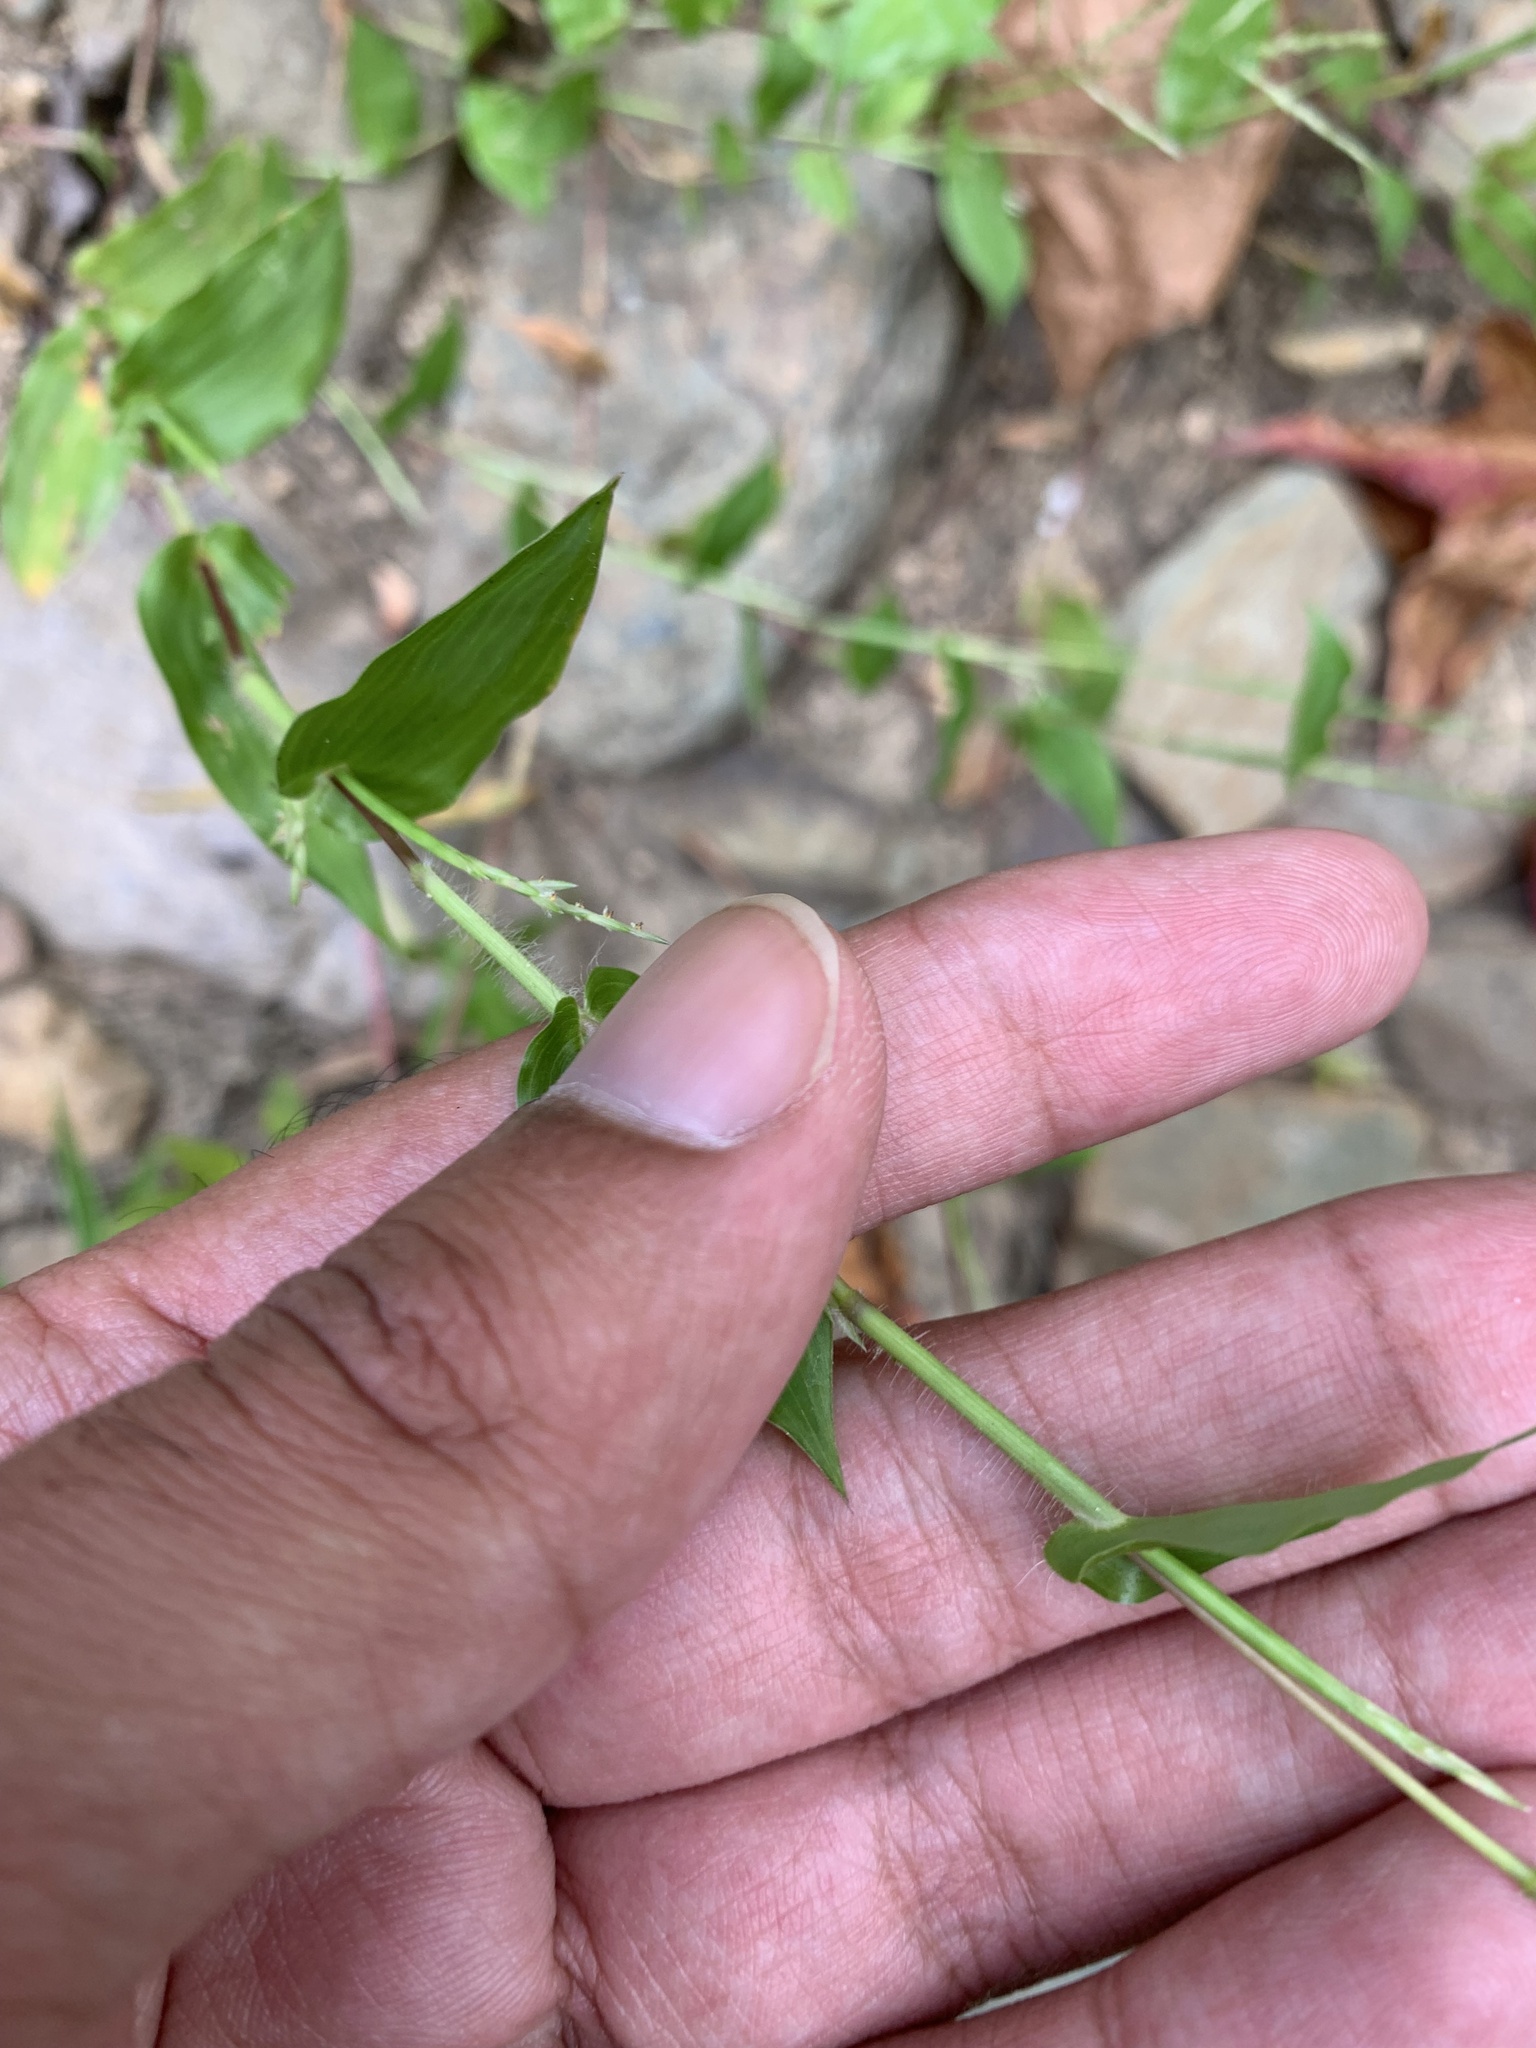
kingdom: Plantae
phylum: Tracheophyta
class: Liliopsida
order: Poales
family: Poaceae
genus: Arthraxon
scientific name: Arthraxon hispidus
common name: Small carpgrass
